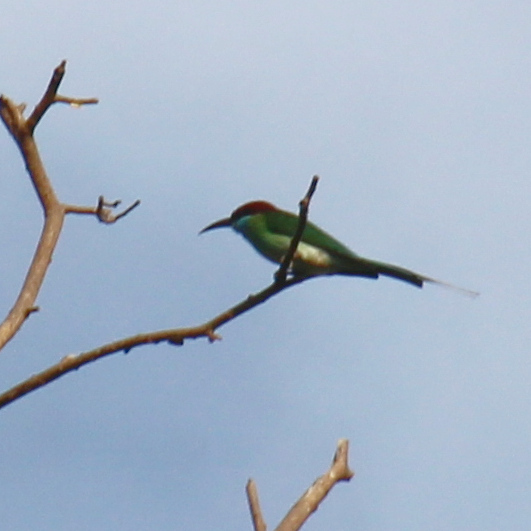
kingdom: Animalia
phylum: Chordata
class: Aves
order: Coraciiformes
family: Meropidae
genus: Merops
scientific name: Merops viridis
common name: Blue-throated bee-eater
